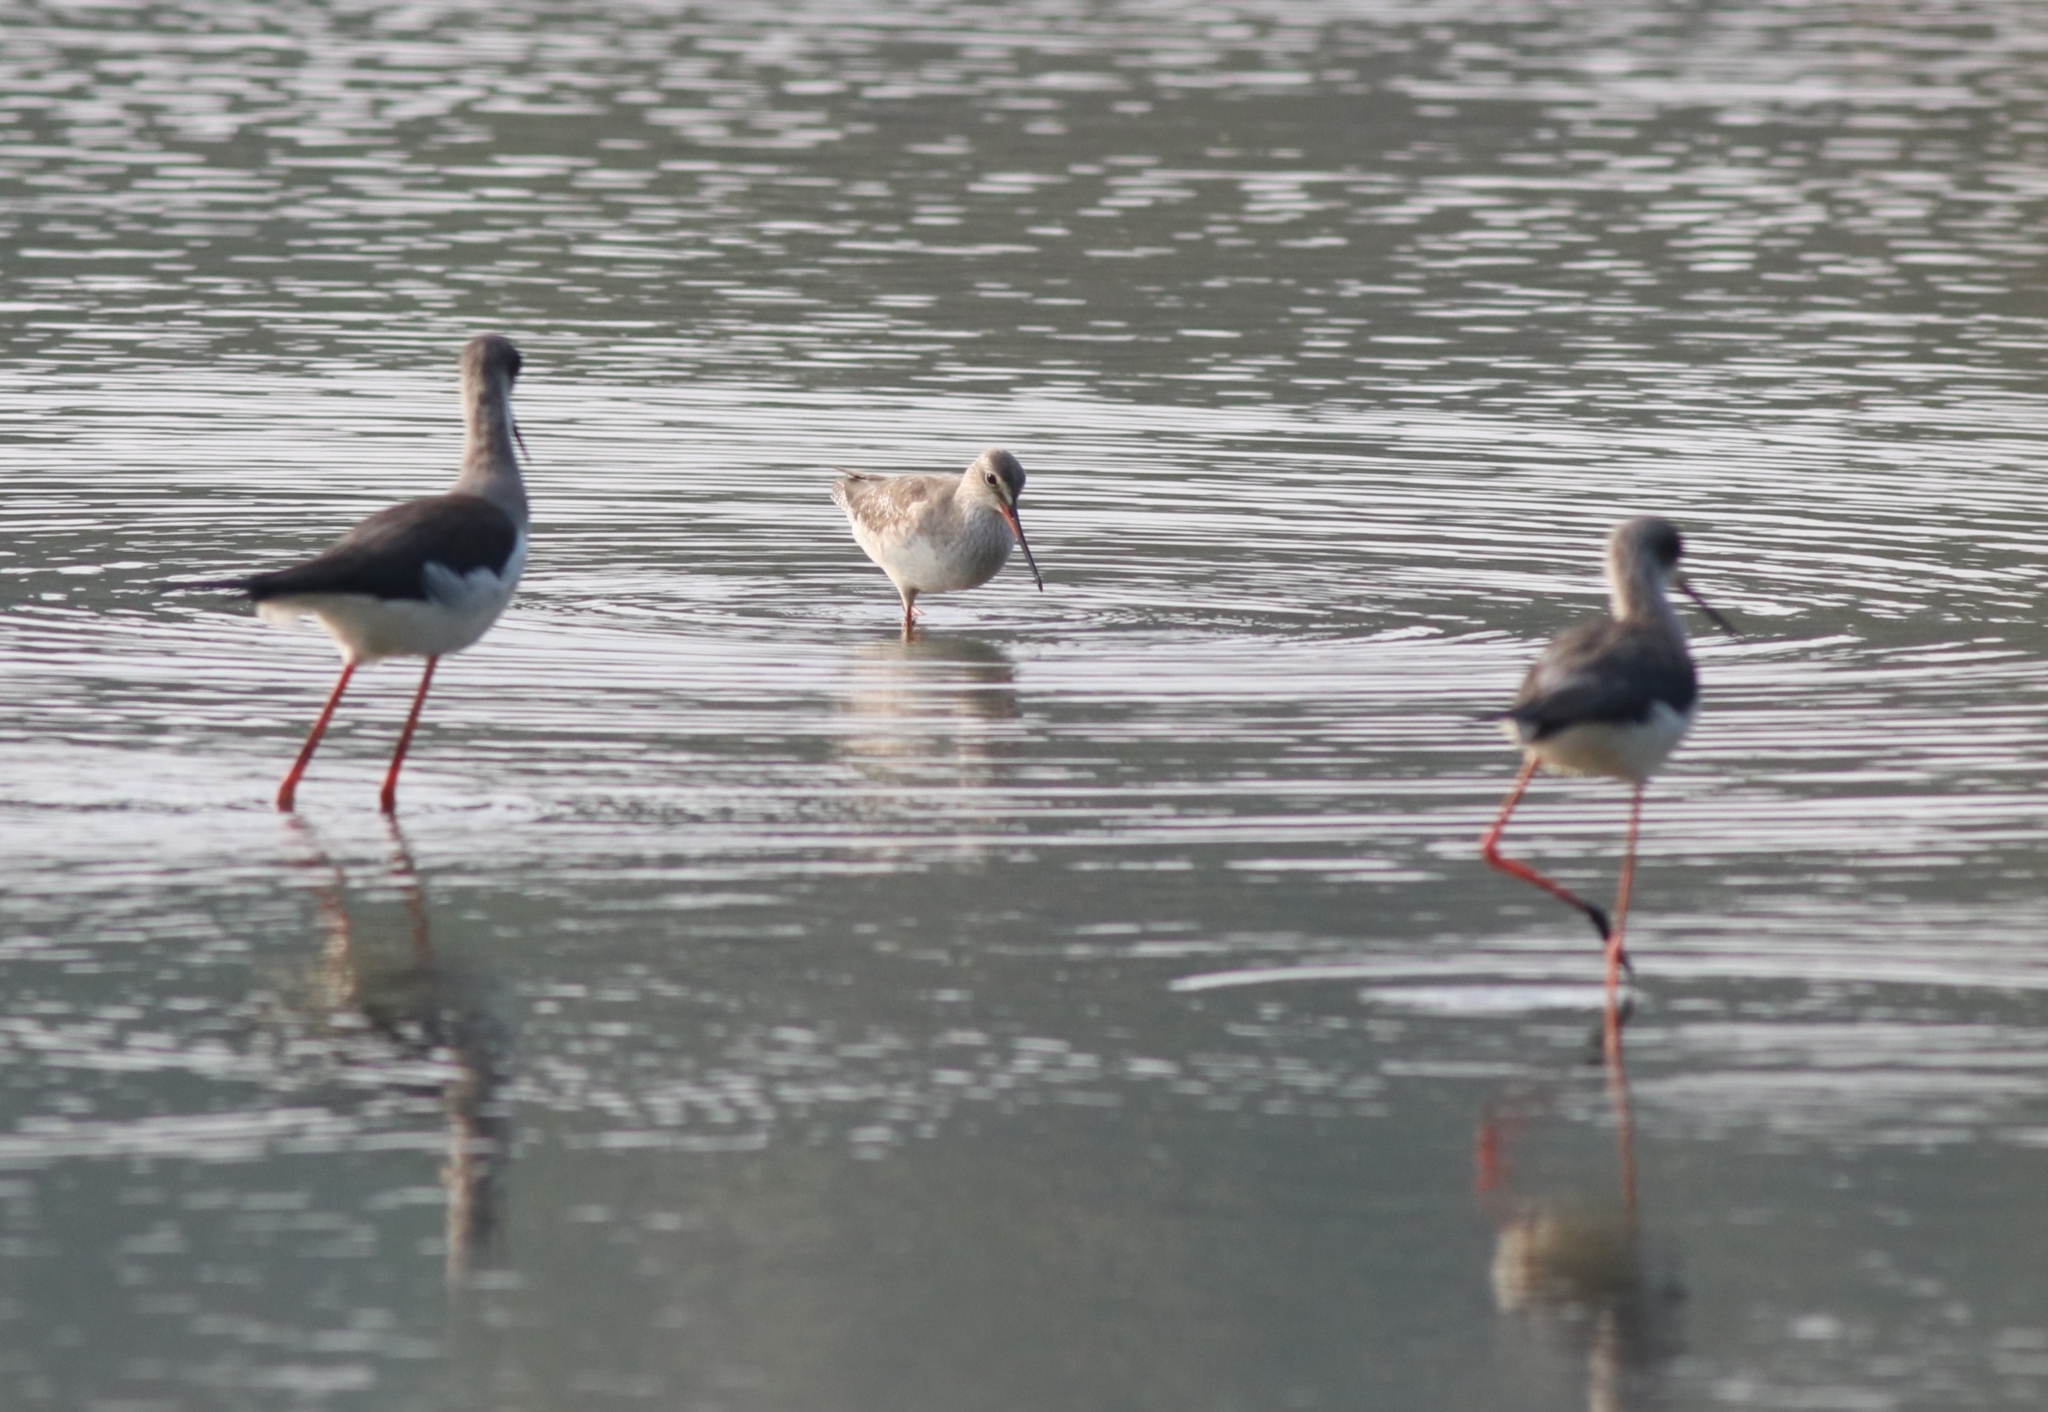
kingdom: Animalia
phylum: Chordata
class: Aves
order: Charadriiformes
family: Recurvirostridae
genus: Himantopus
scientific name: Himantopus himantopus
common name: Black-winged stilt
